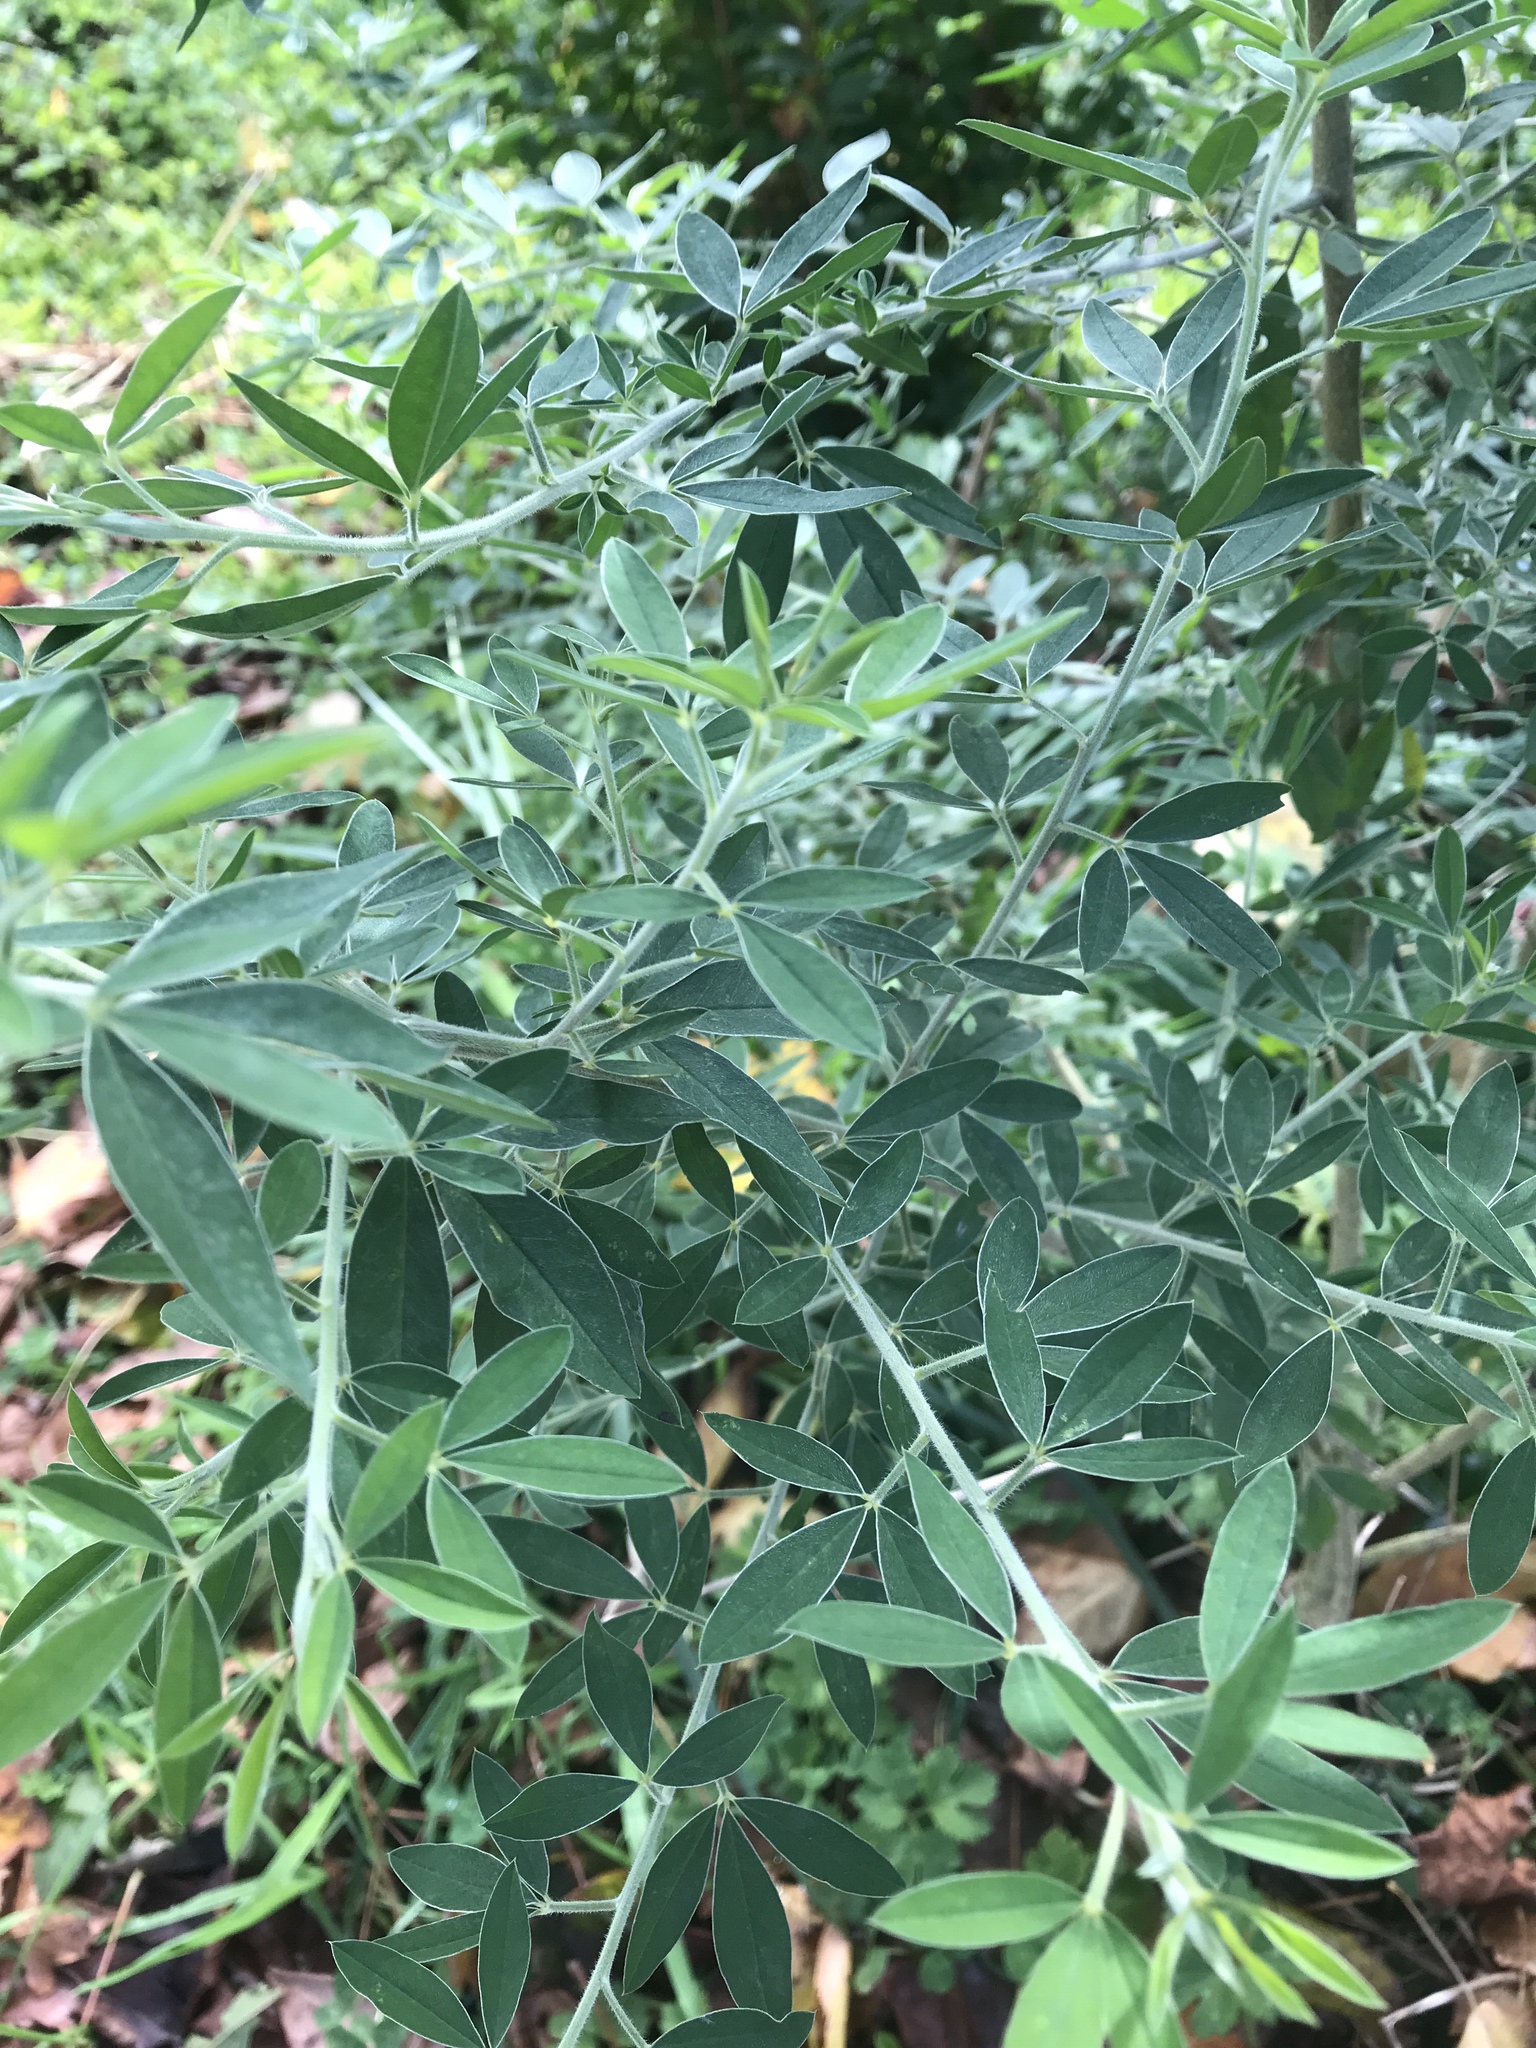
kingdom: Plantae
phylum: Tracheophyta
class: Magnoliopsida
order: Fabales
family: Fabaceae
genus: Chamaecytisus
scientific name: Chamaecytisus prolifer
